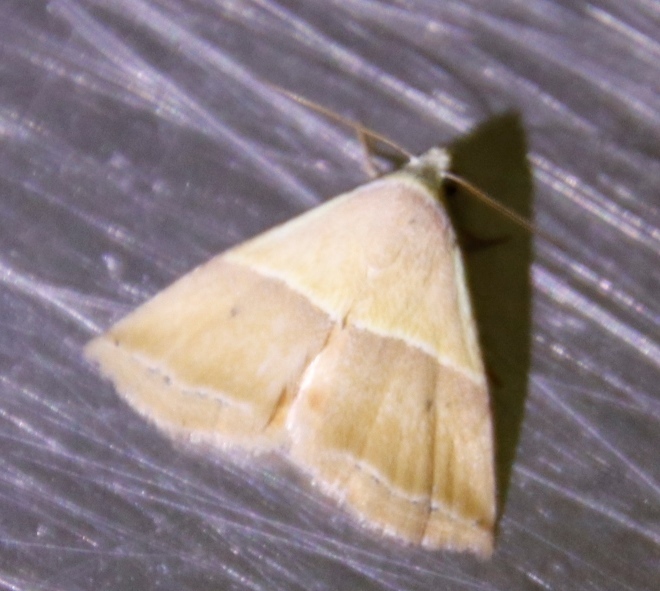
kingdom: Animalia
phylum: Arthropoda
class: Insecta
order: Lepidoptera
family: Noctuidae
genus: Eublemma
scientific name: Eublemma caffrorum
